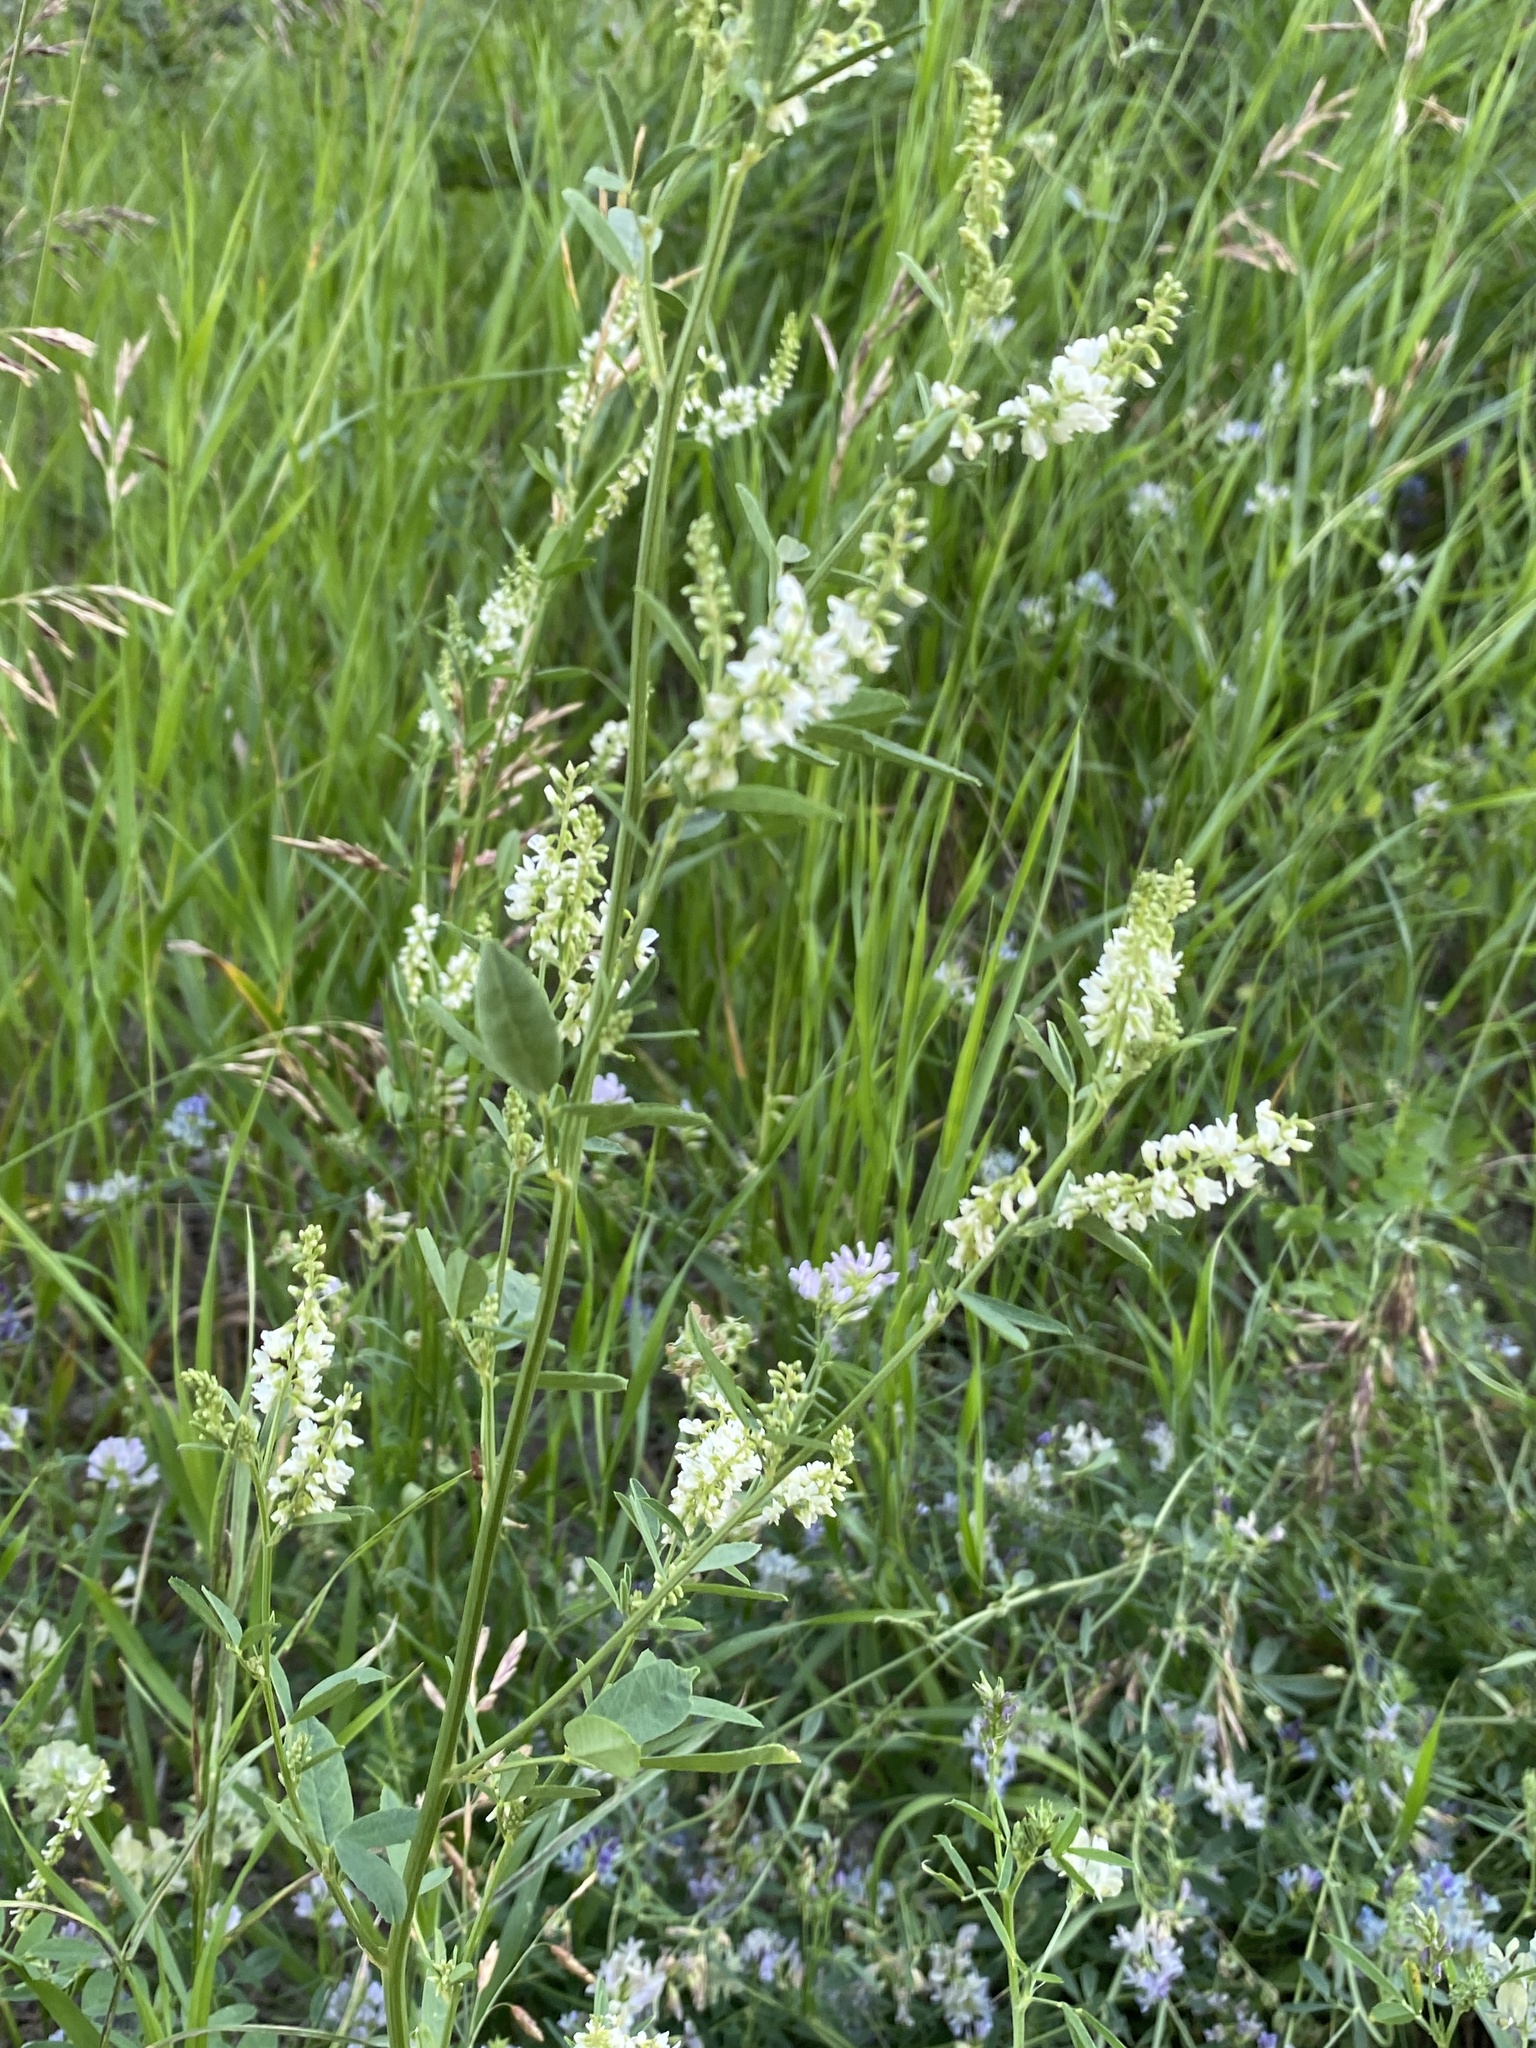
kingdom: Plantae
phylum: Tracheophyta
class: Magnoliopsida
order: Fabales
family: Fabaceae
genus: Melilotus
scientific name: Melilotus albus
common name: White melilot
